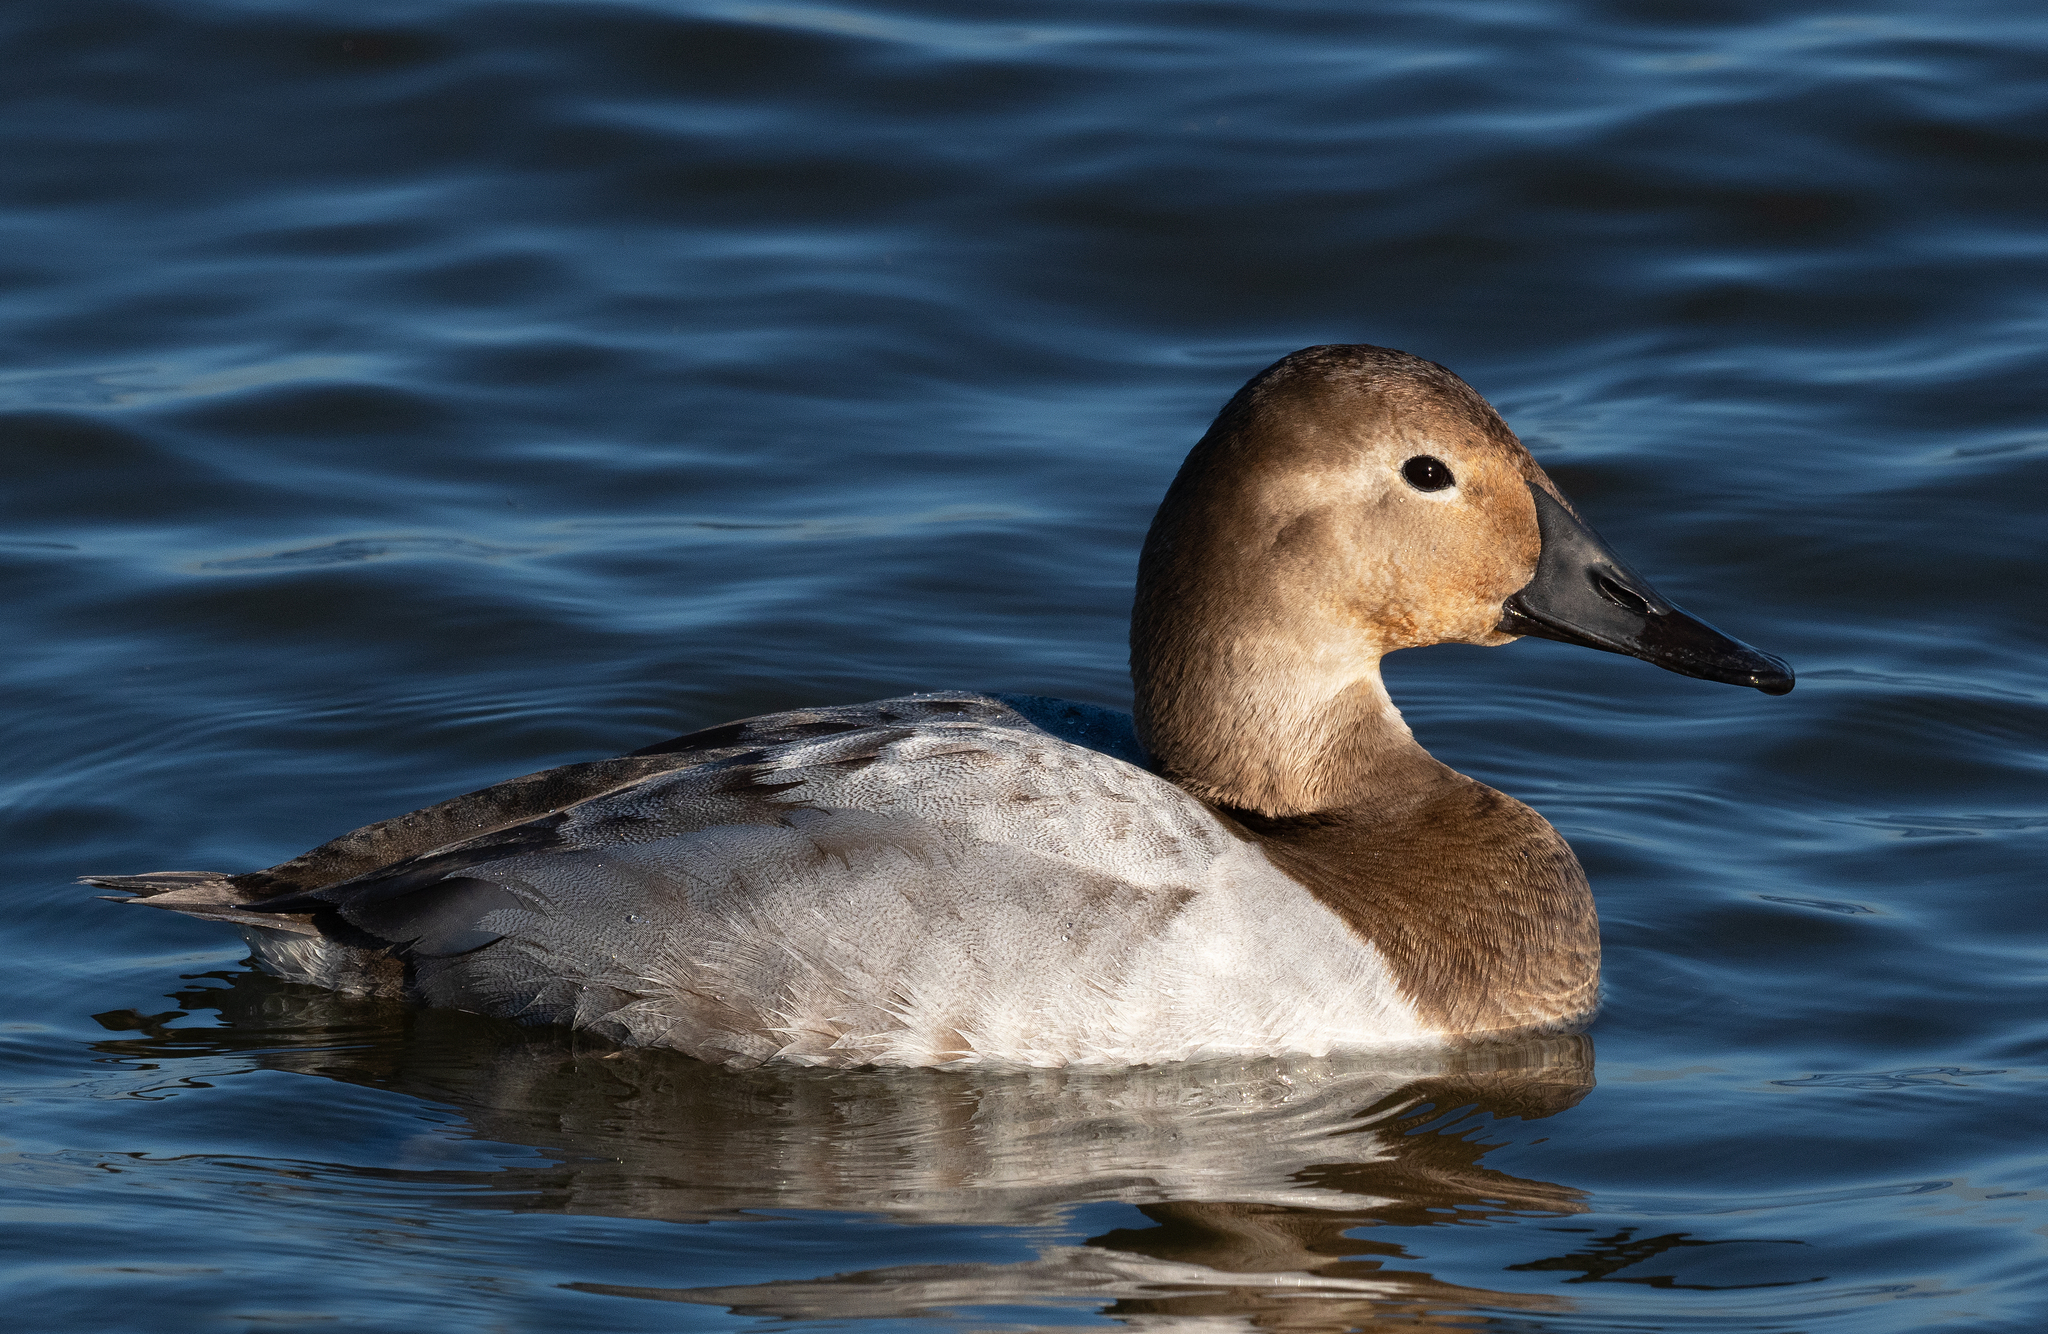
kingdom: Animalia
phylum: Chordata
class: Aves
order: Anseriformes
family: Anatidae
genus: Aythya
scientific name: Aythya valisineria
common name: Canvasback
